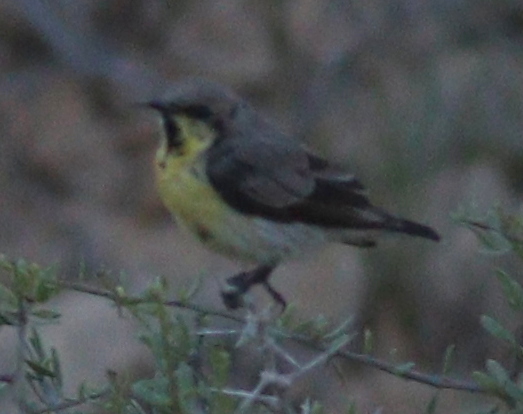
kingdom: Animalia
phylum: Chordata
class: Aves
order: Passeriformes
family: Nectariniidae
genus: Cinnyris
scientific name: Cinnyris asiaticus
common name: Purple sunbird
